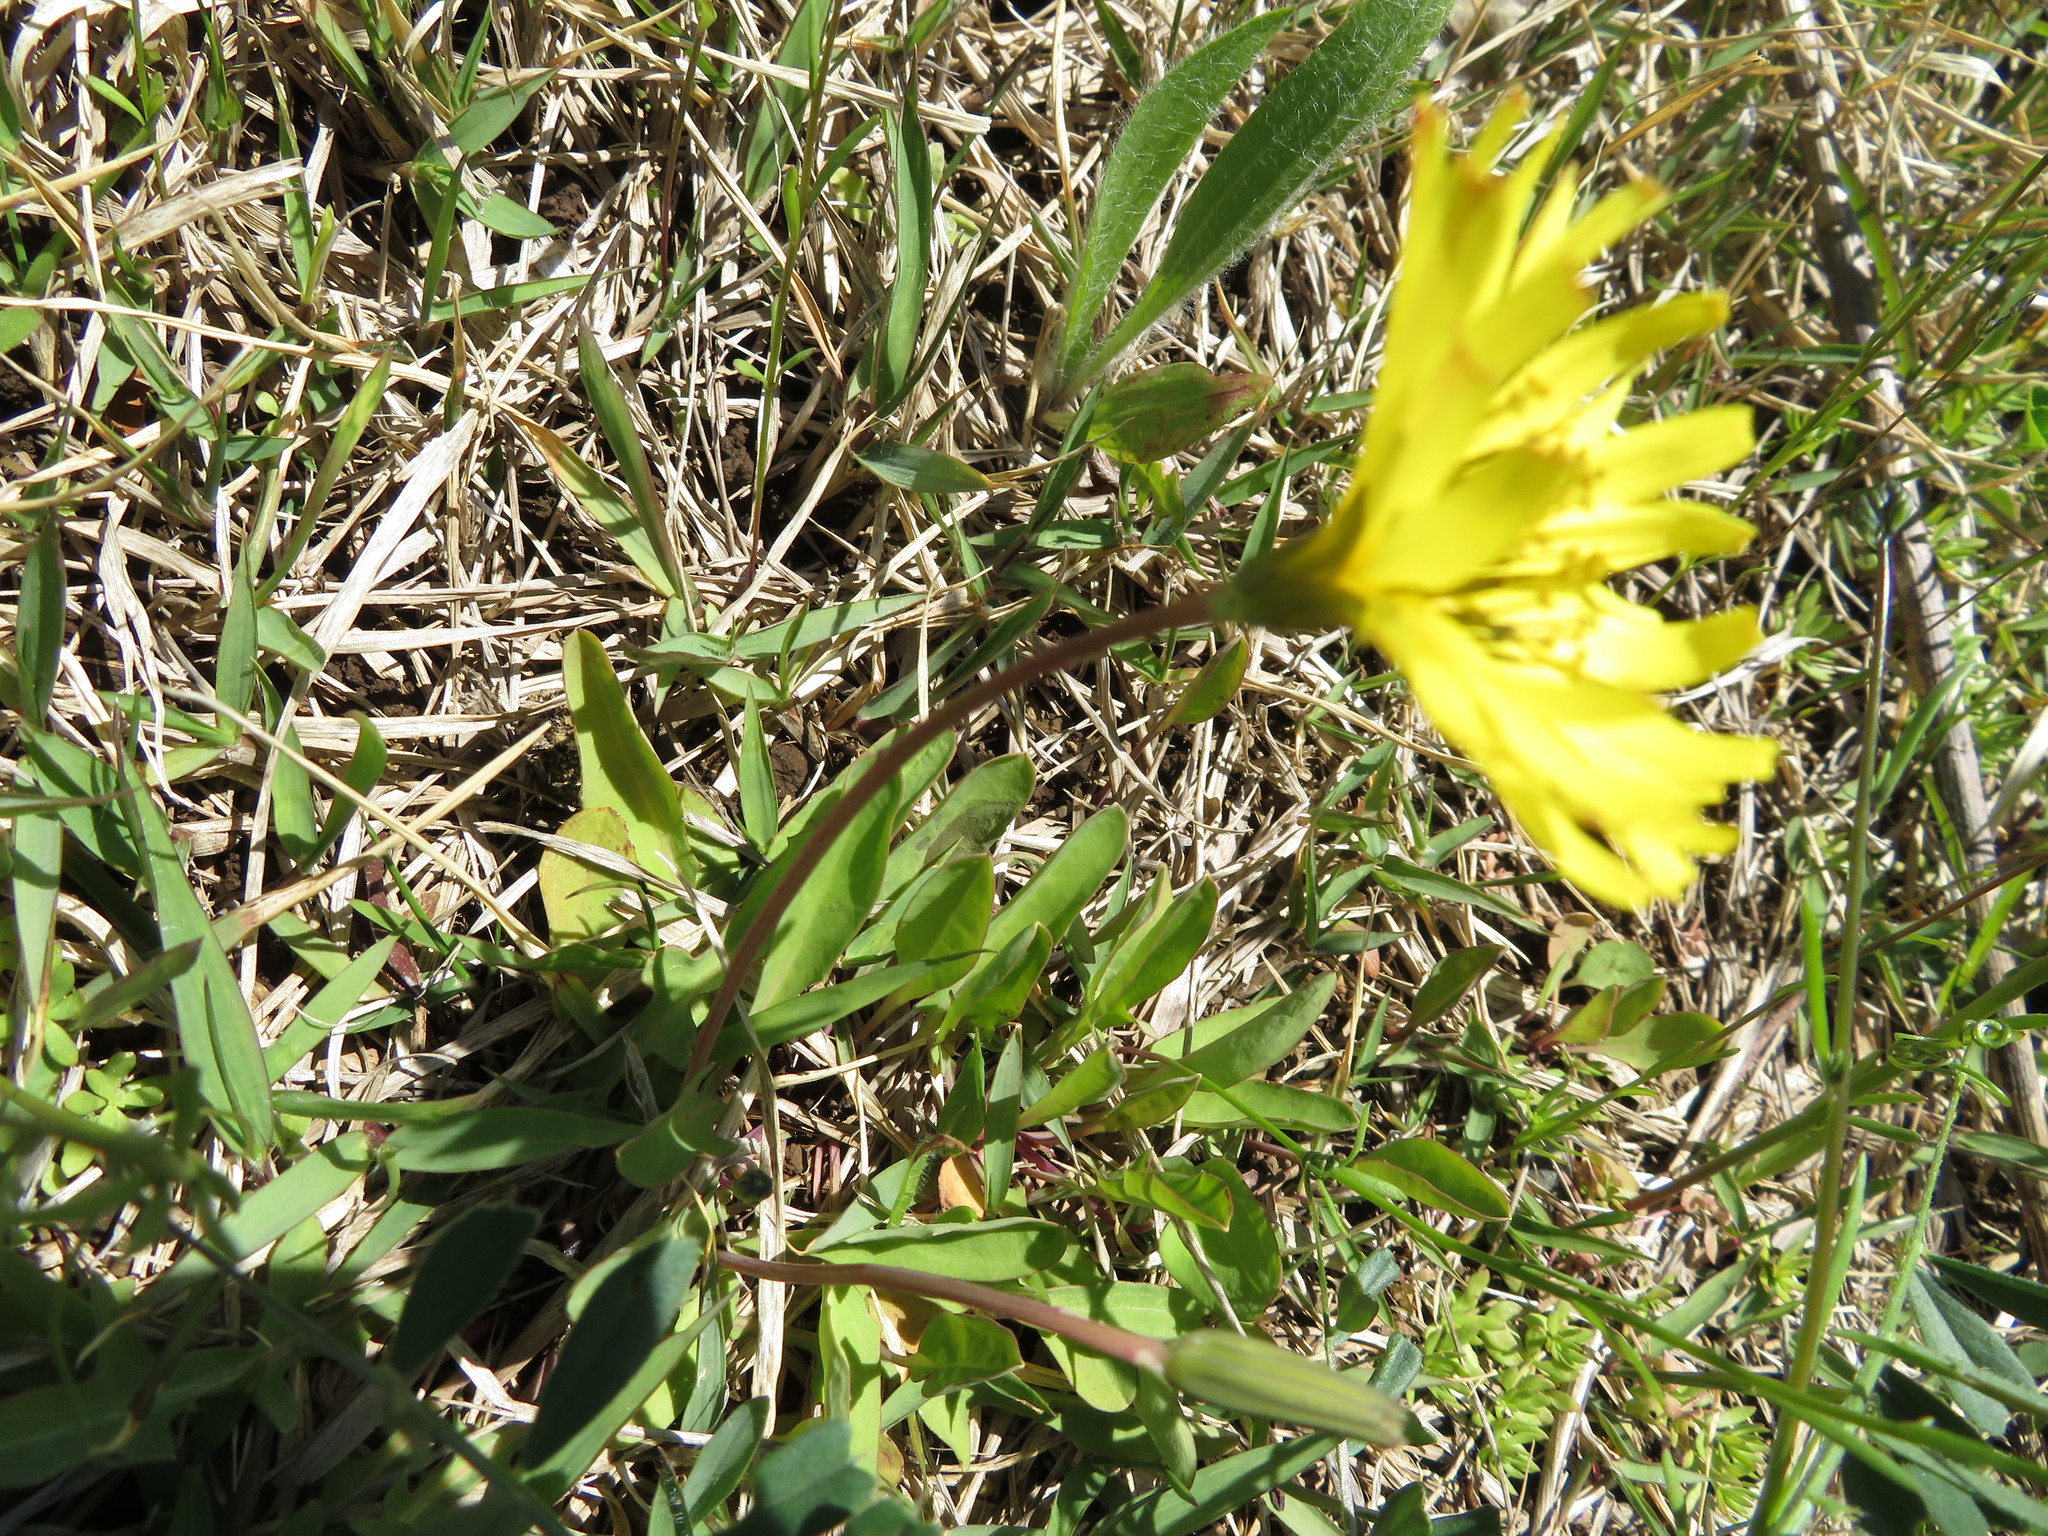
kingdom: Plantae
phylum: Tracheophyta
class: Magnoliopsida
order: Asterales
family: Asteraceae
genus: Ixeris
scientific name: Ixeris japonica
